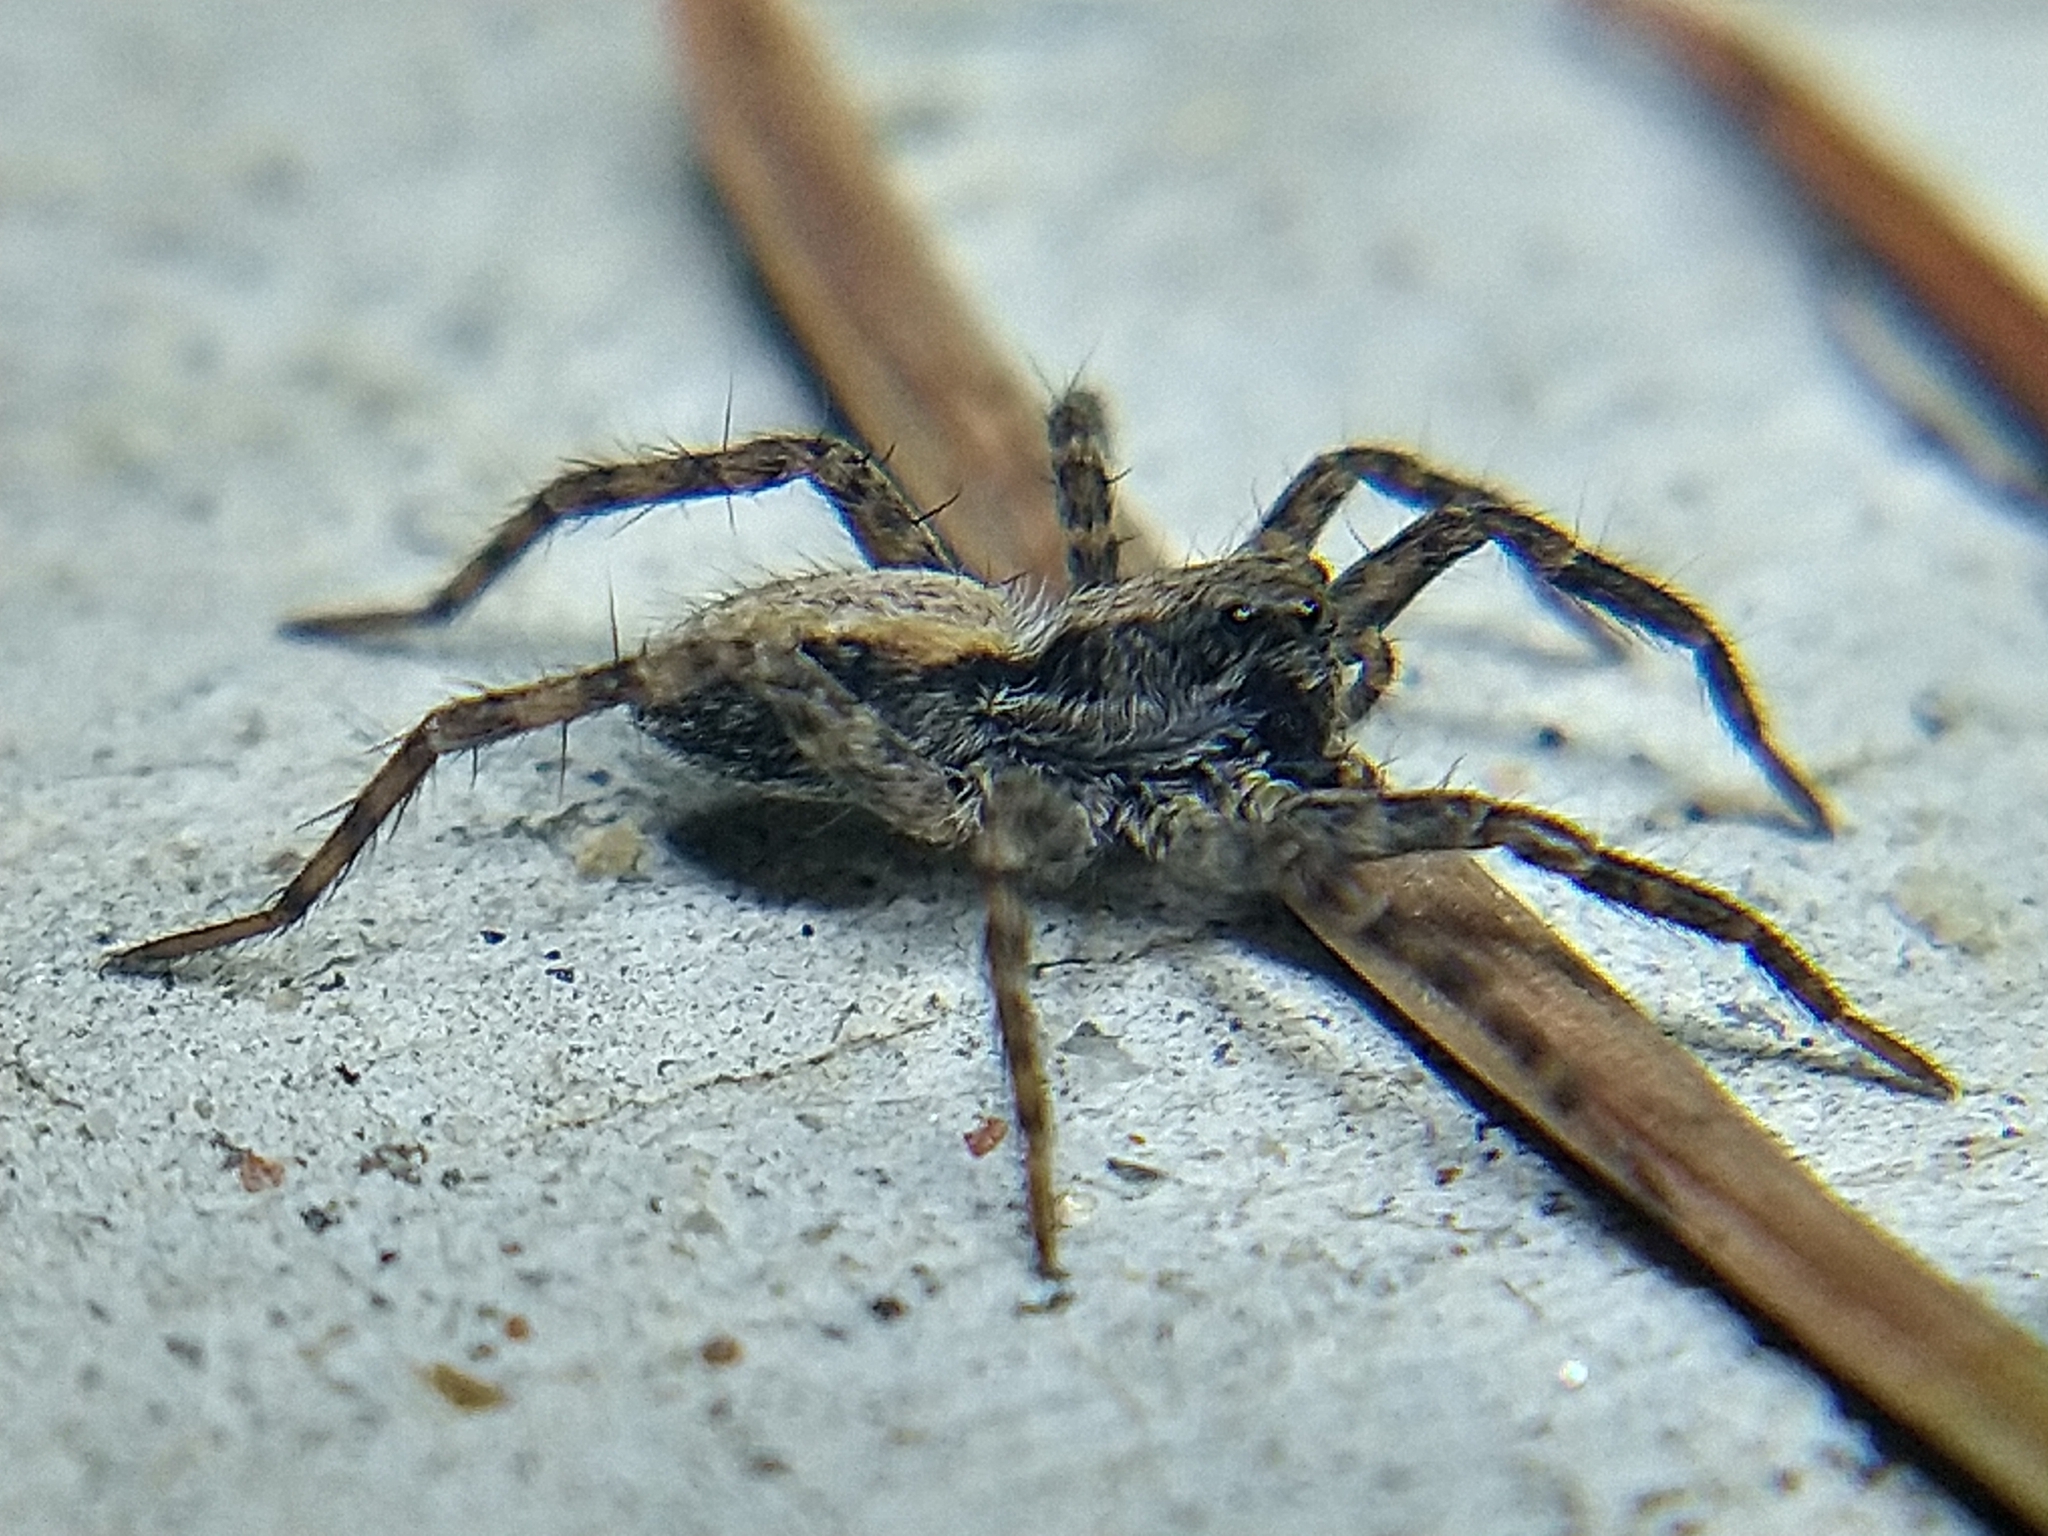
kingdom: Animalia
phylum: Arthropoda
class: Arachnida
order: Araneae
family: Lycosidae
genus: Pardosa
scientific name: Pardosa
